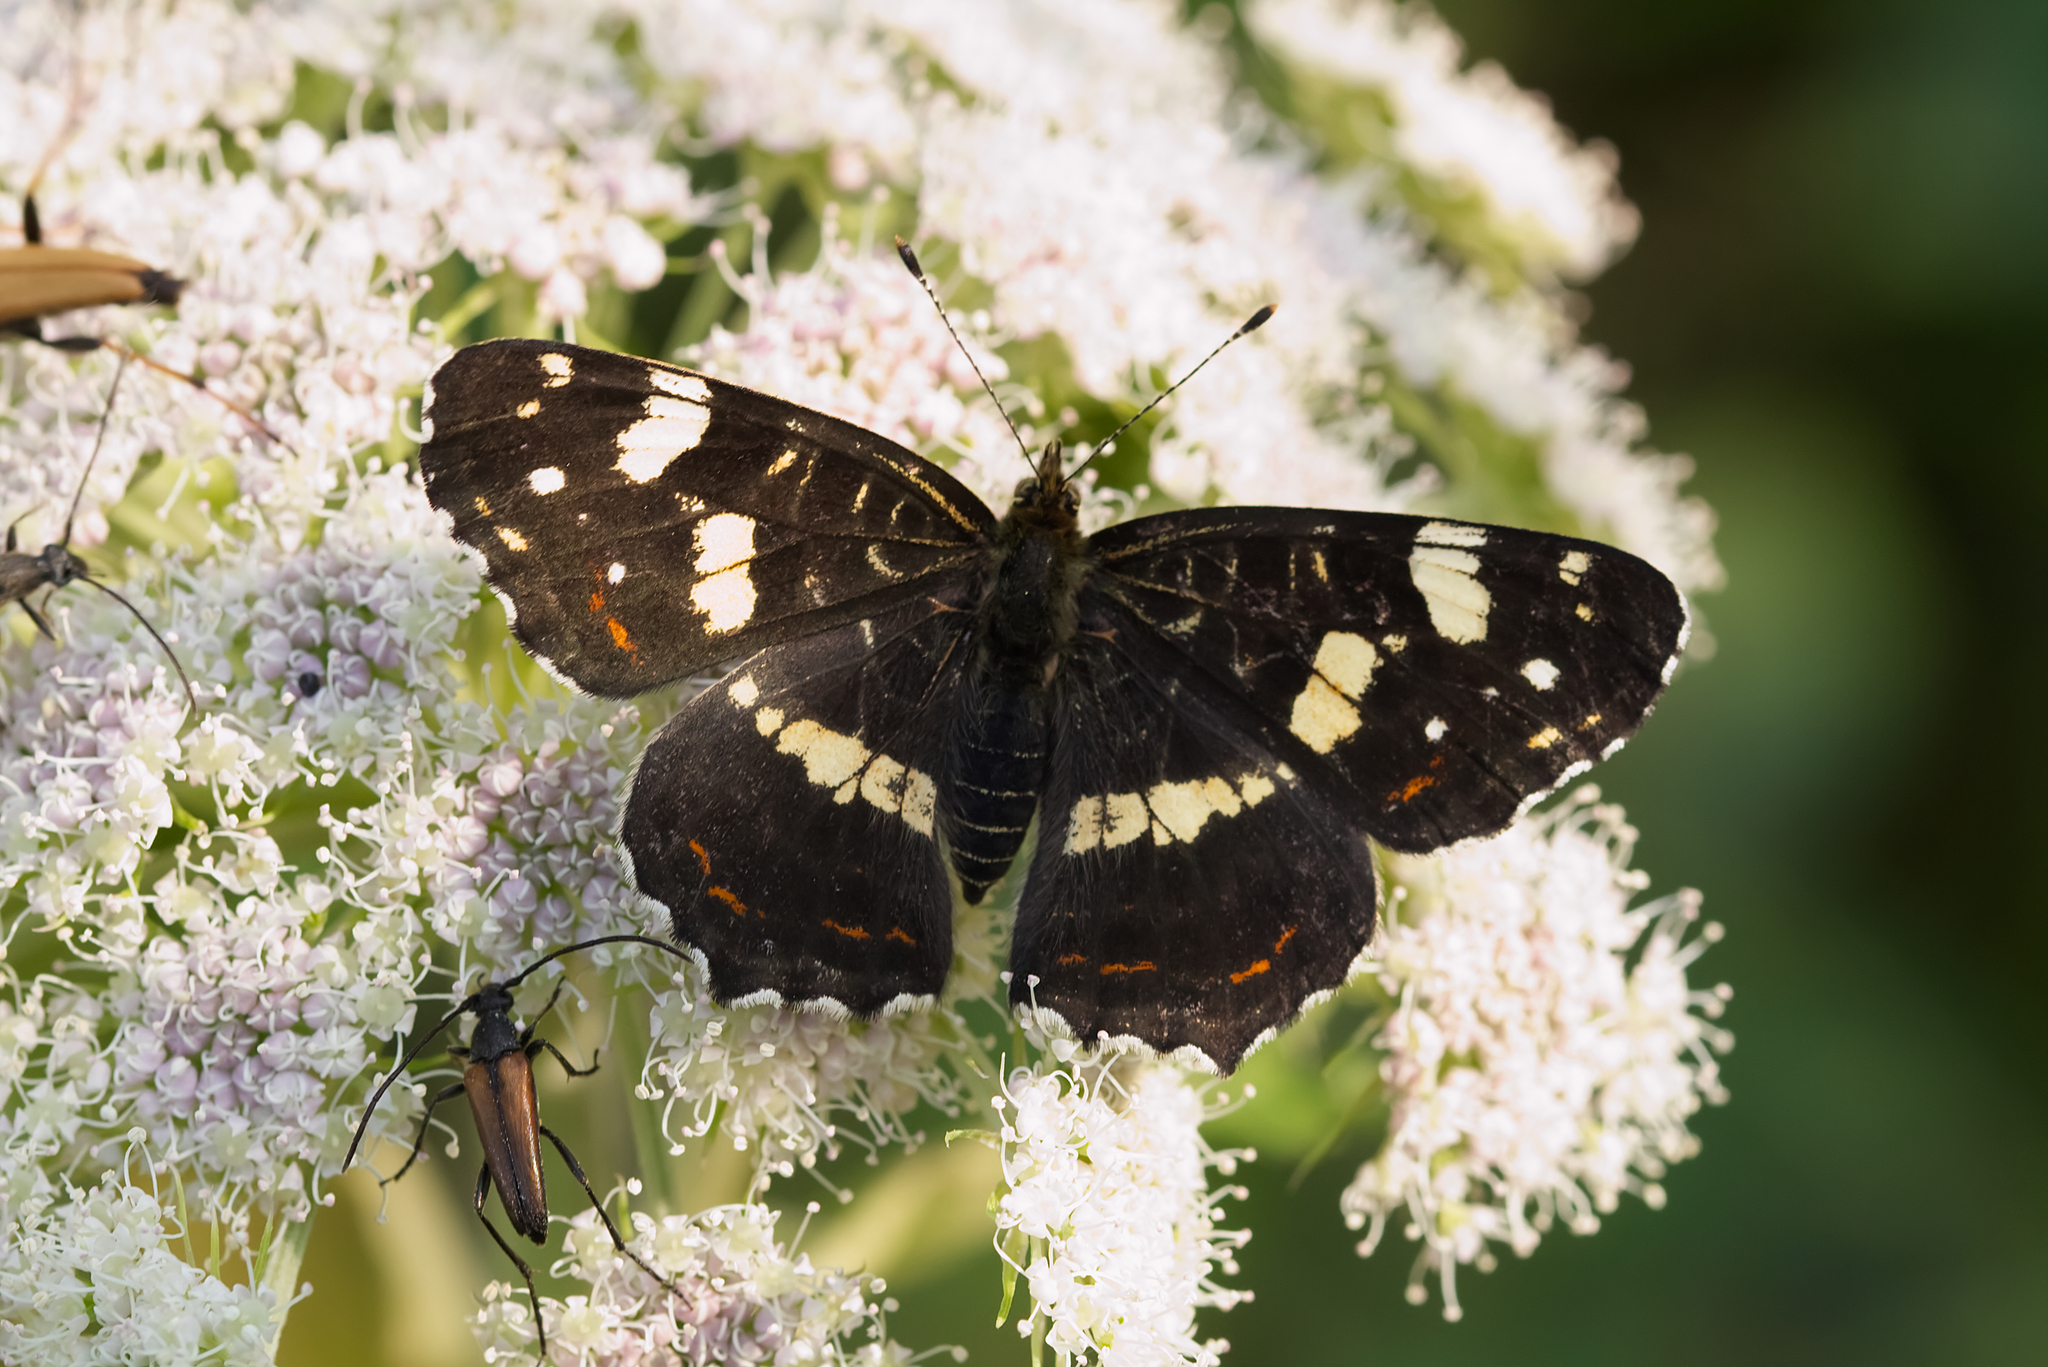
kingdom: Animalia
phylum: Arthropoda
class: Insecta
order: Lepidoptera
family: Nymphalidae
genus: Araschnia
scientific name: Araschnia levana
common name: Map butterfly
